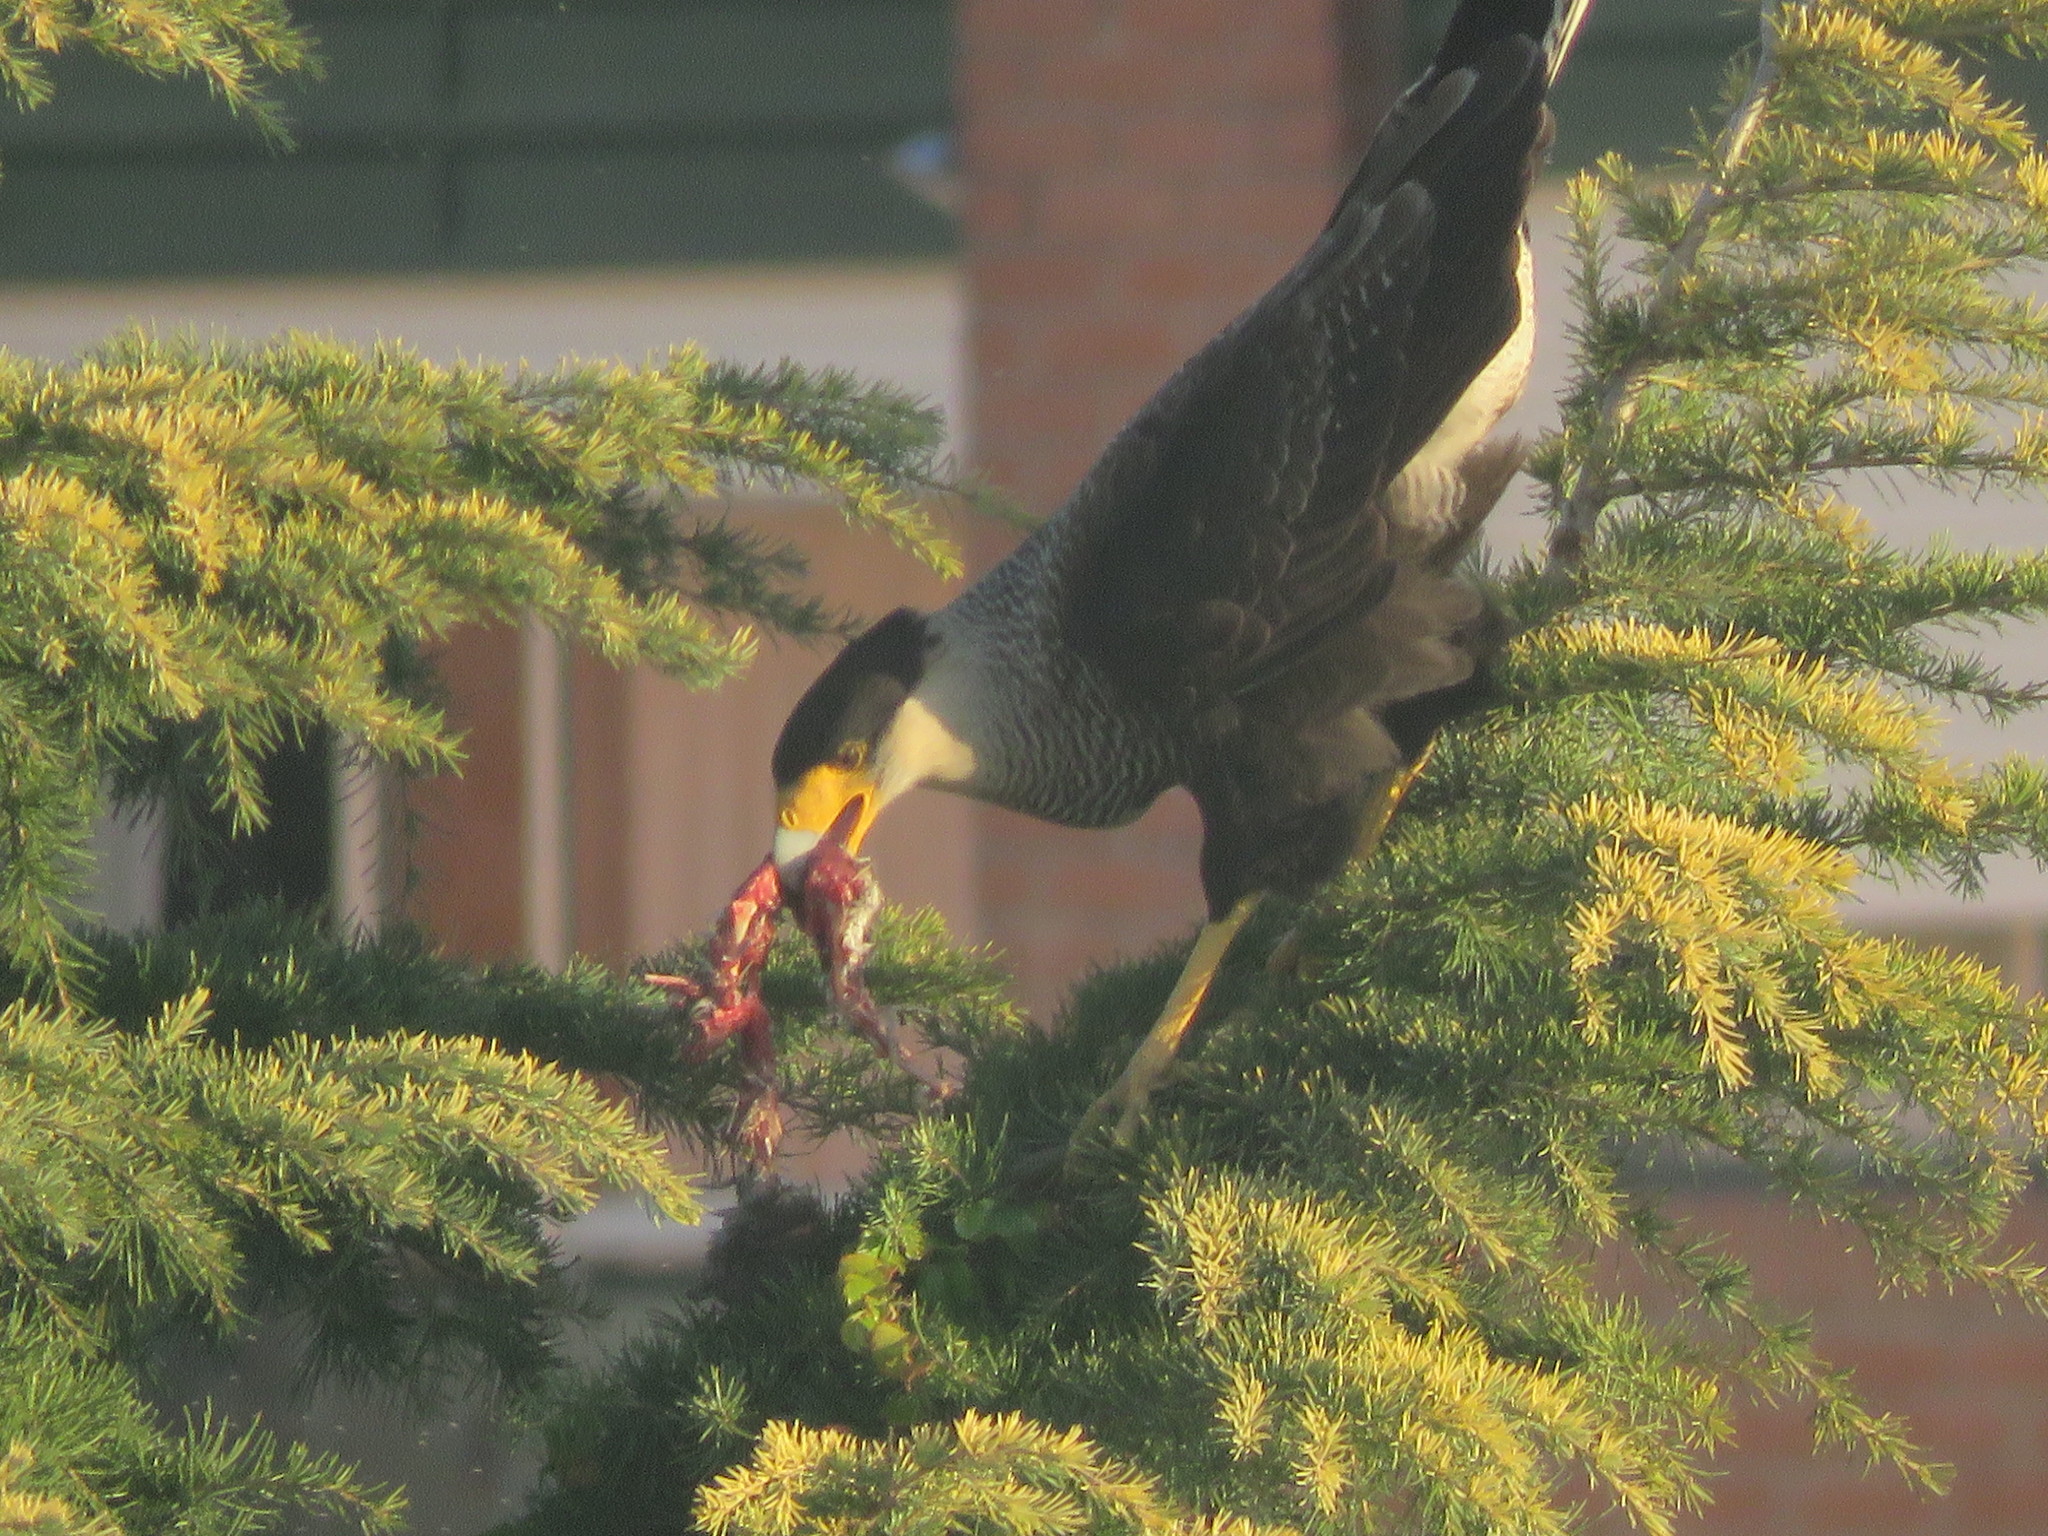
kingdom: Animalia
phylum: Chordata
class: Aves
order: Falconiformes
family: Falconidae
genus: Caracara
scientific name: Caracara plancus
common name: Southern caracara
